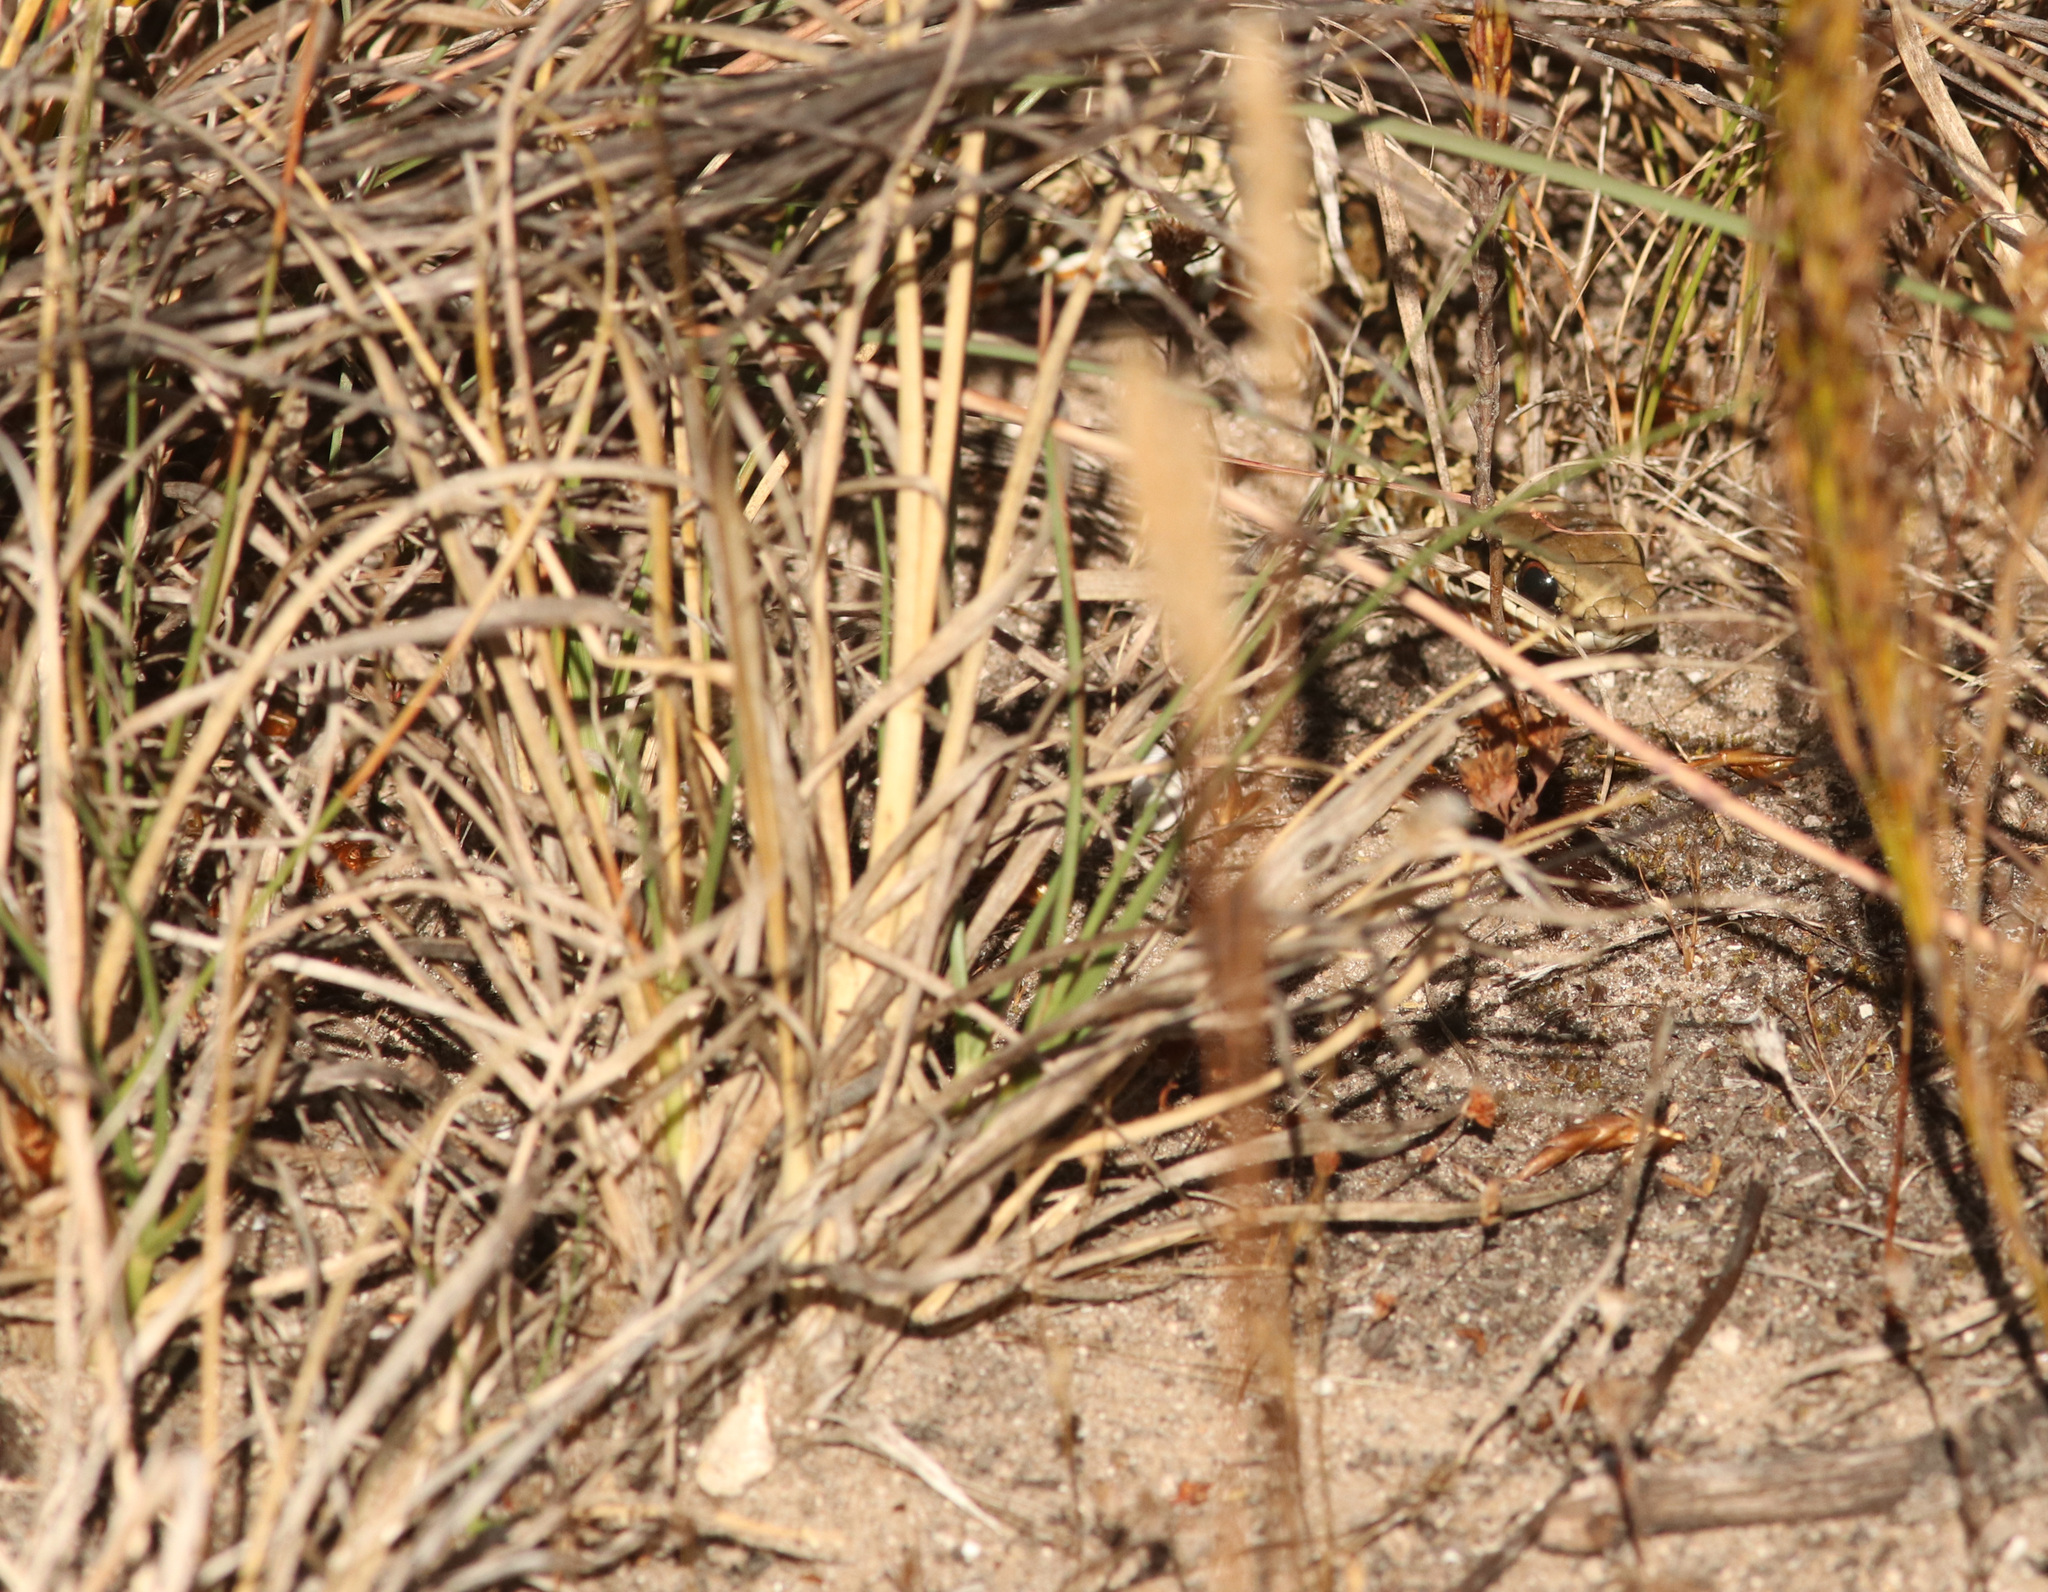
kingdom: Animalia
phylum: Chordata
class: Squamata
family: Psammophiidae
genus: Psammophylax
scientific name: Psammophylax rhombeatus
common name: Rhombic skaapsteker
